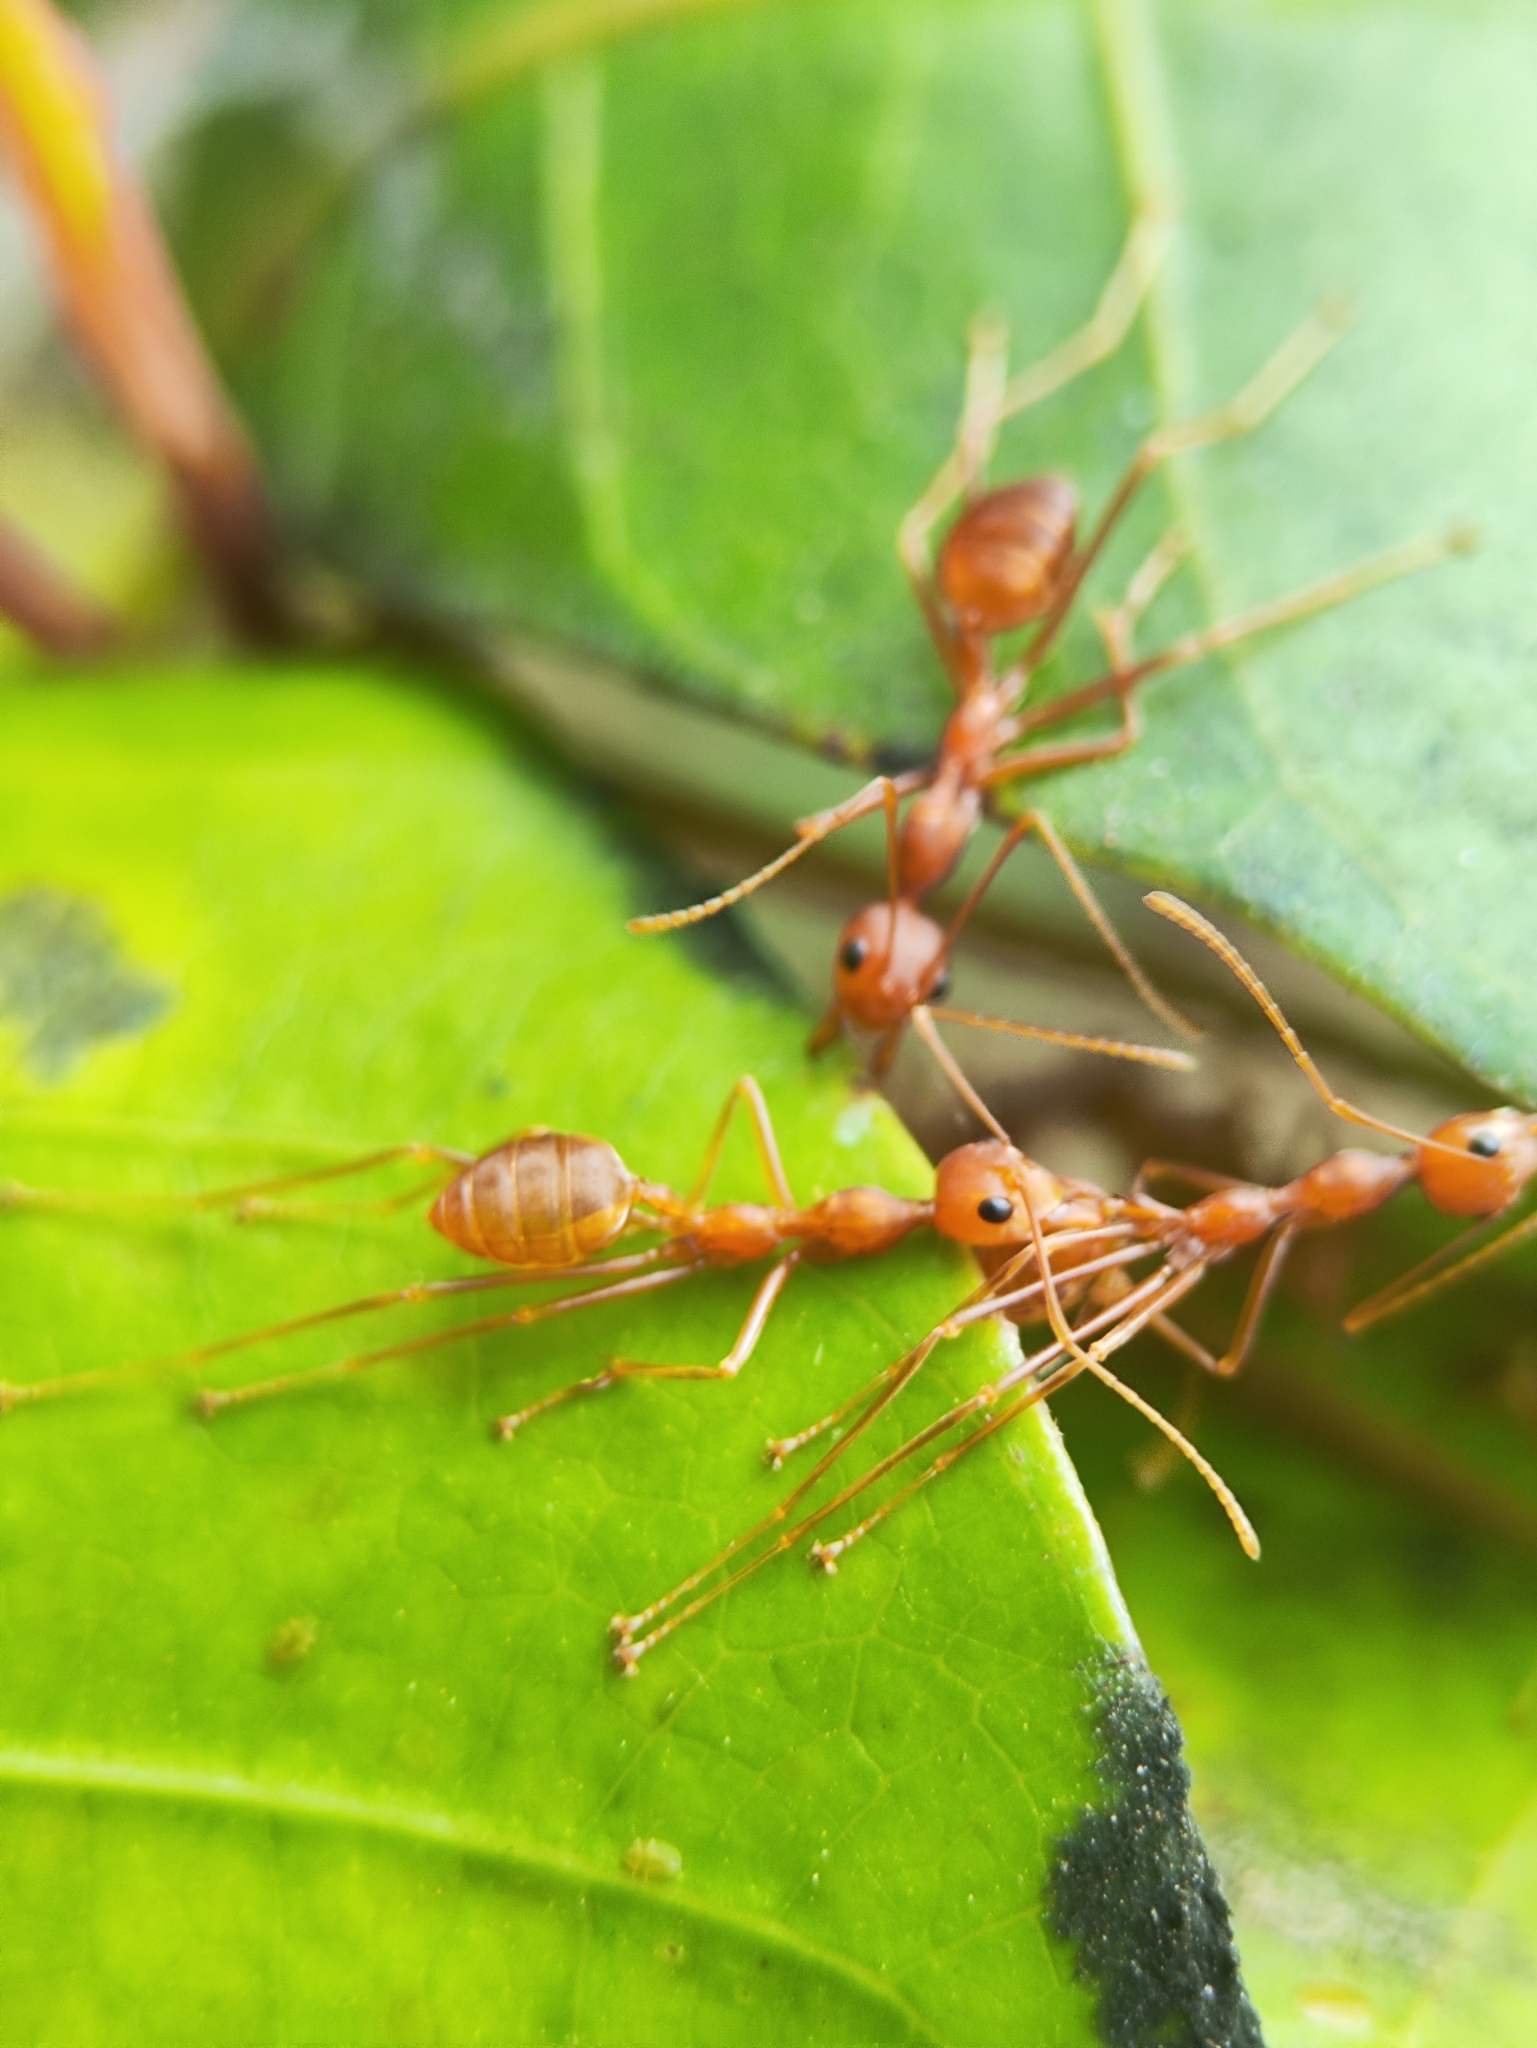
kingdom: Animalia
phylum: Arthropoda
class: Insecta
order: Hymenoptera
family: Formicidae
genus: Oecophylla
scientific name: Oecophylla smaragdina
